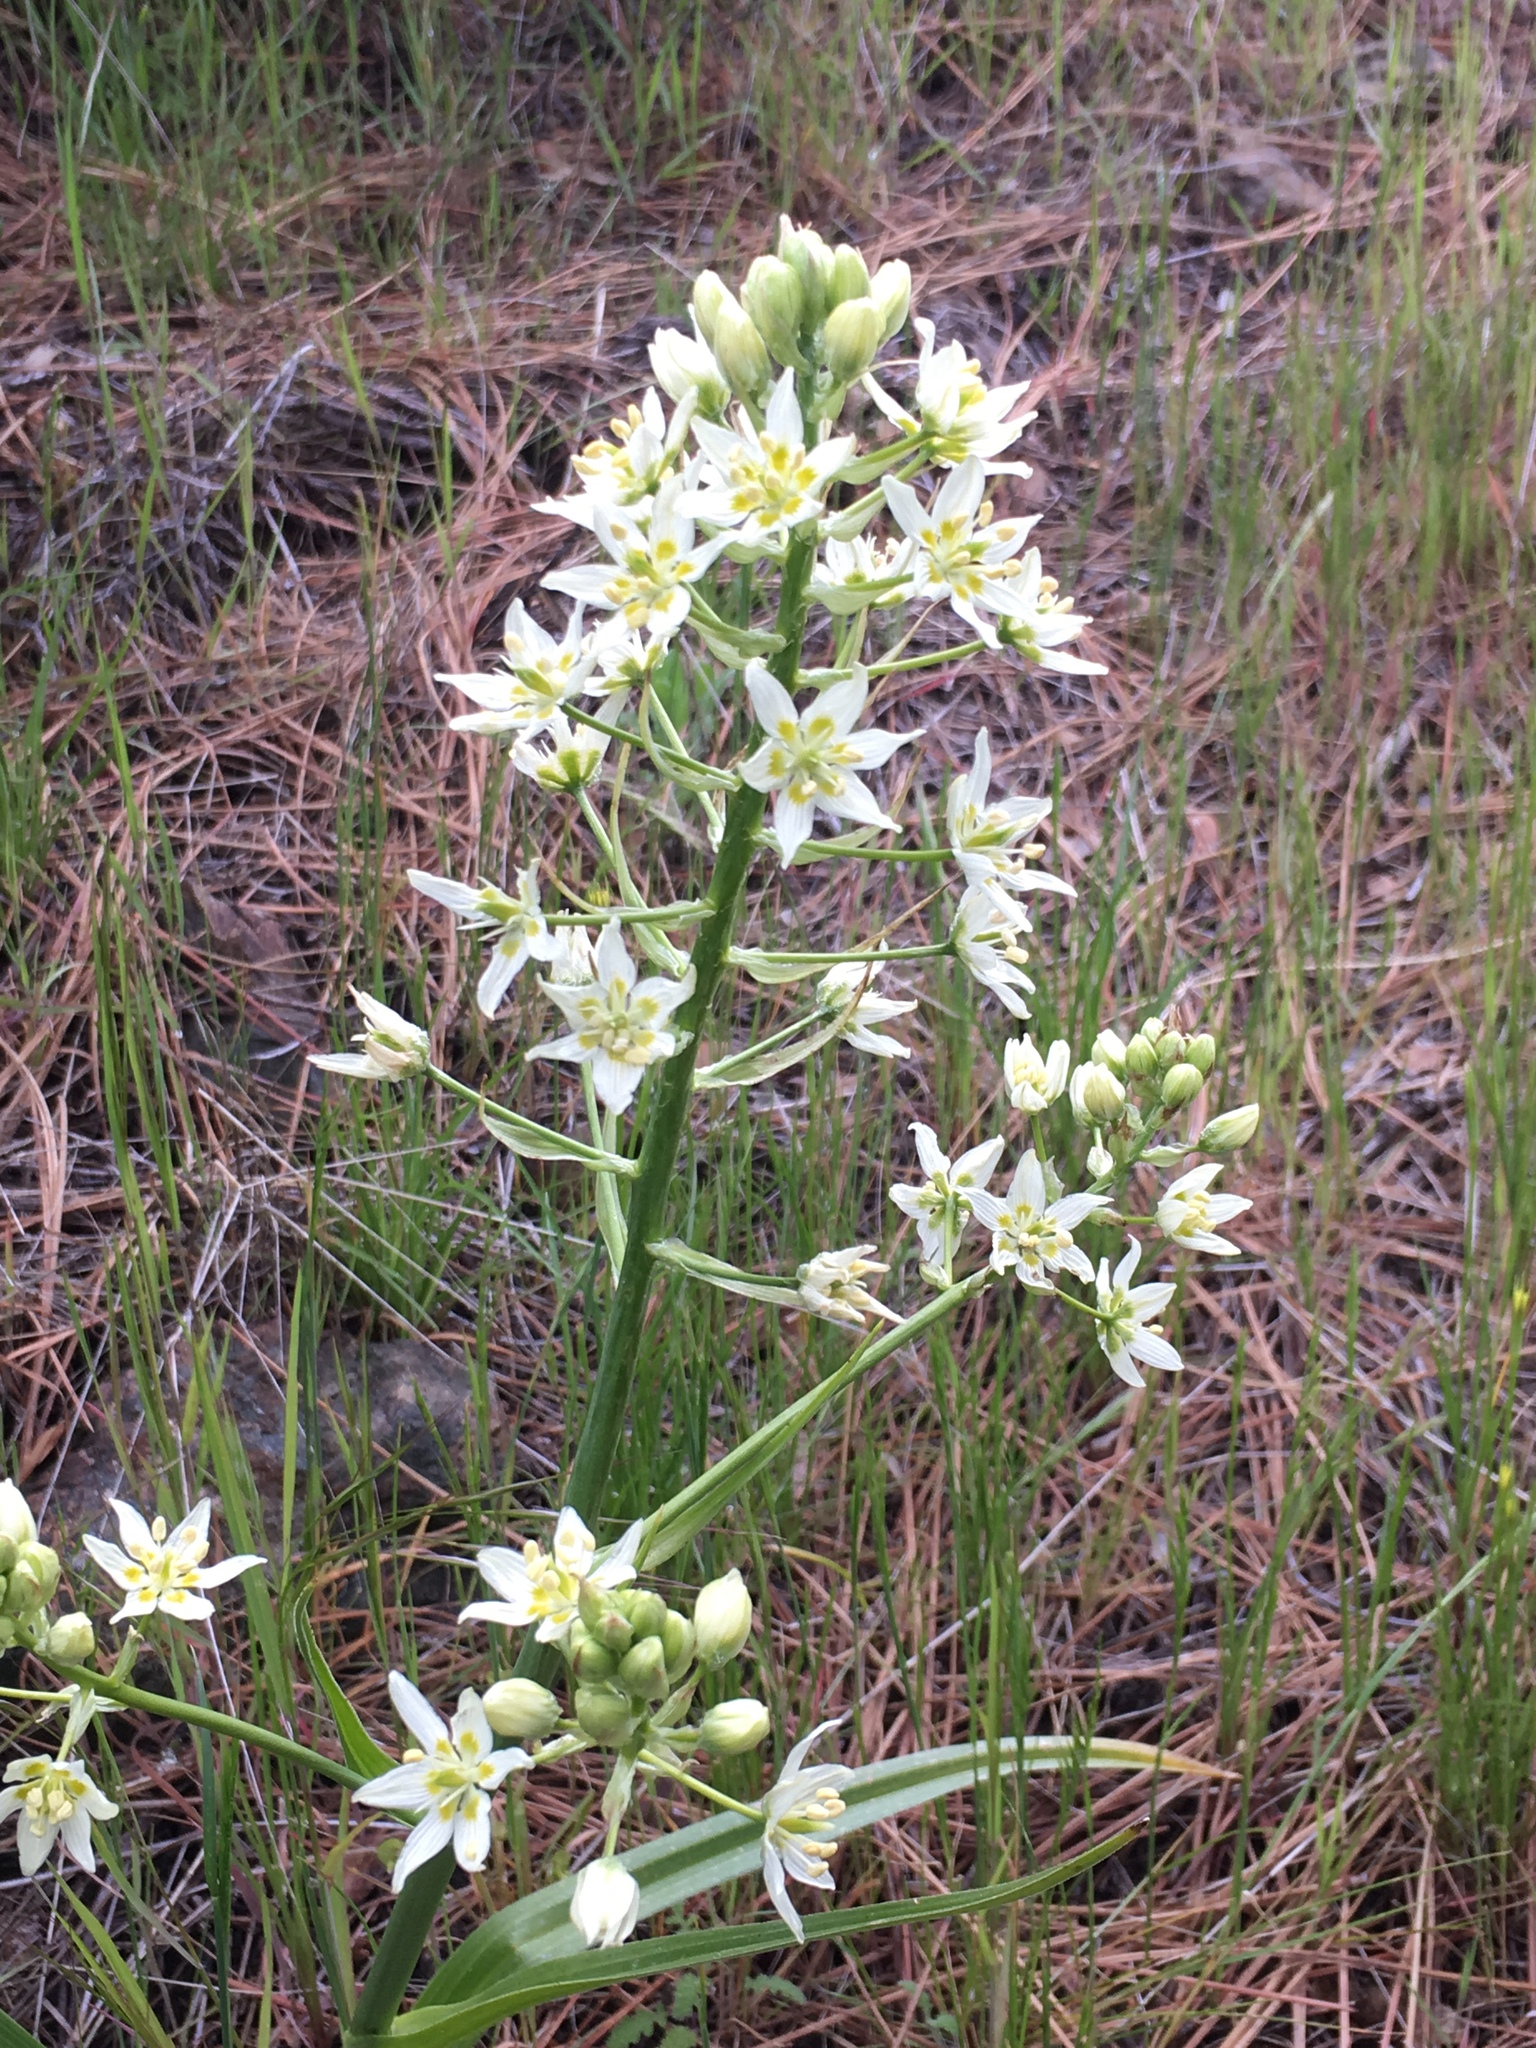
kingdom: Plantae
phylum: Tracheophyta
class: Liliopsida
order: Liliales
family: Melanthiaceae
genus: Toxicoscordion
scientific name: Toxicoscordion fremontii
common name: Fremont's death camas
